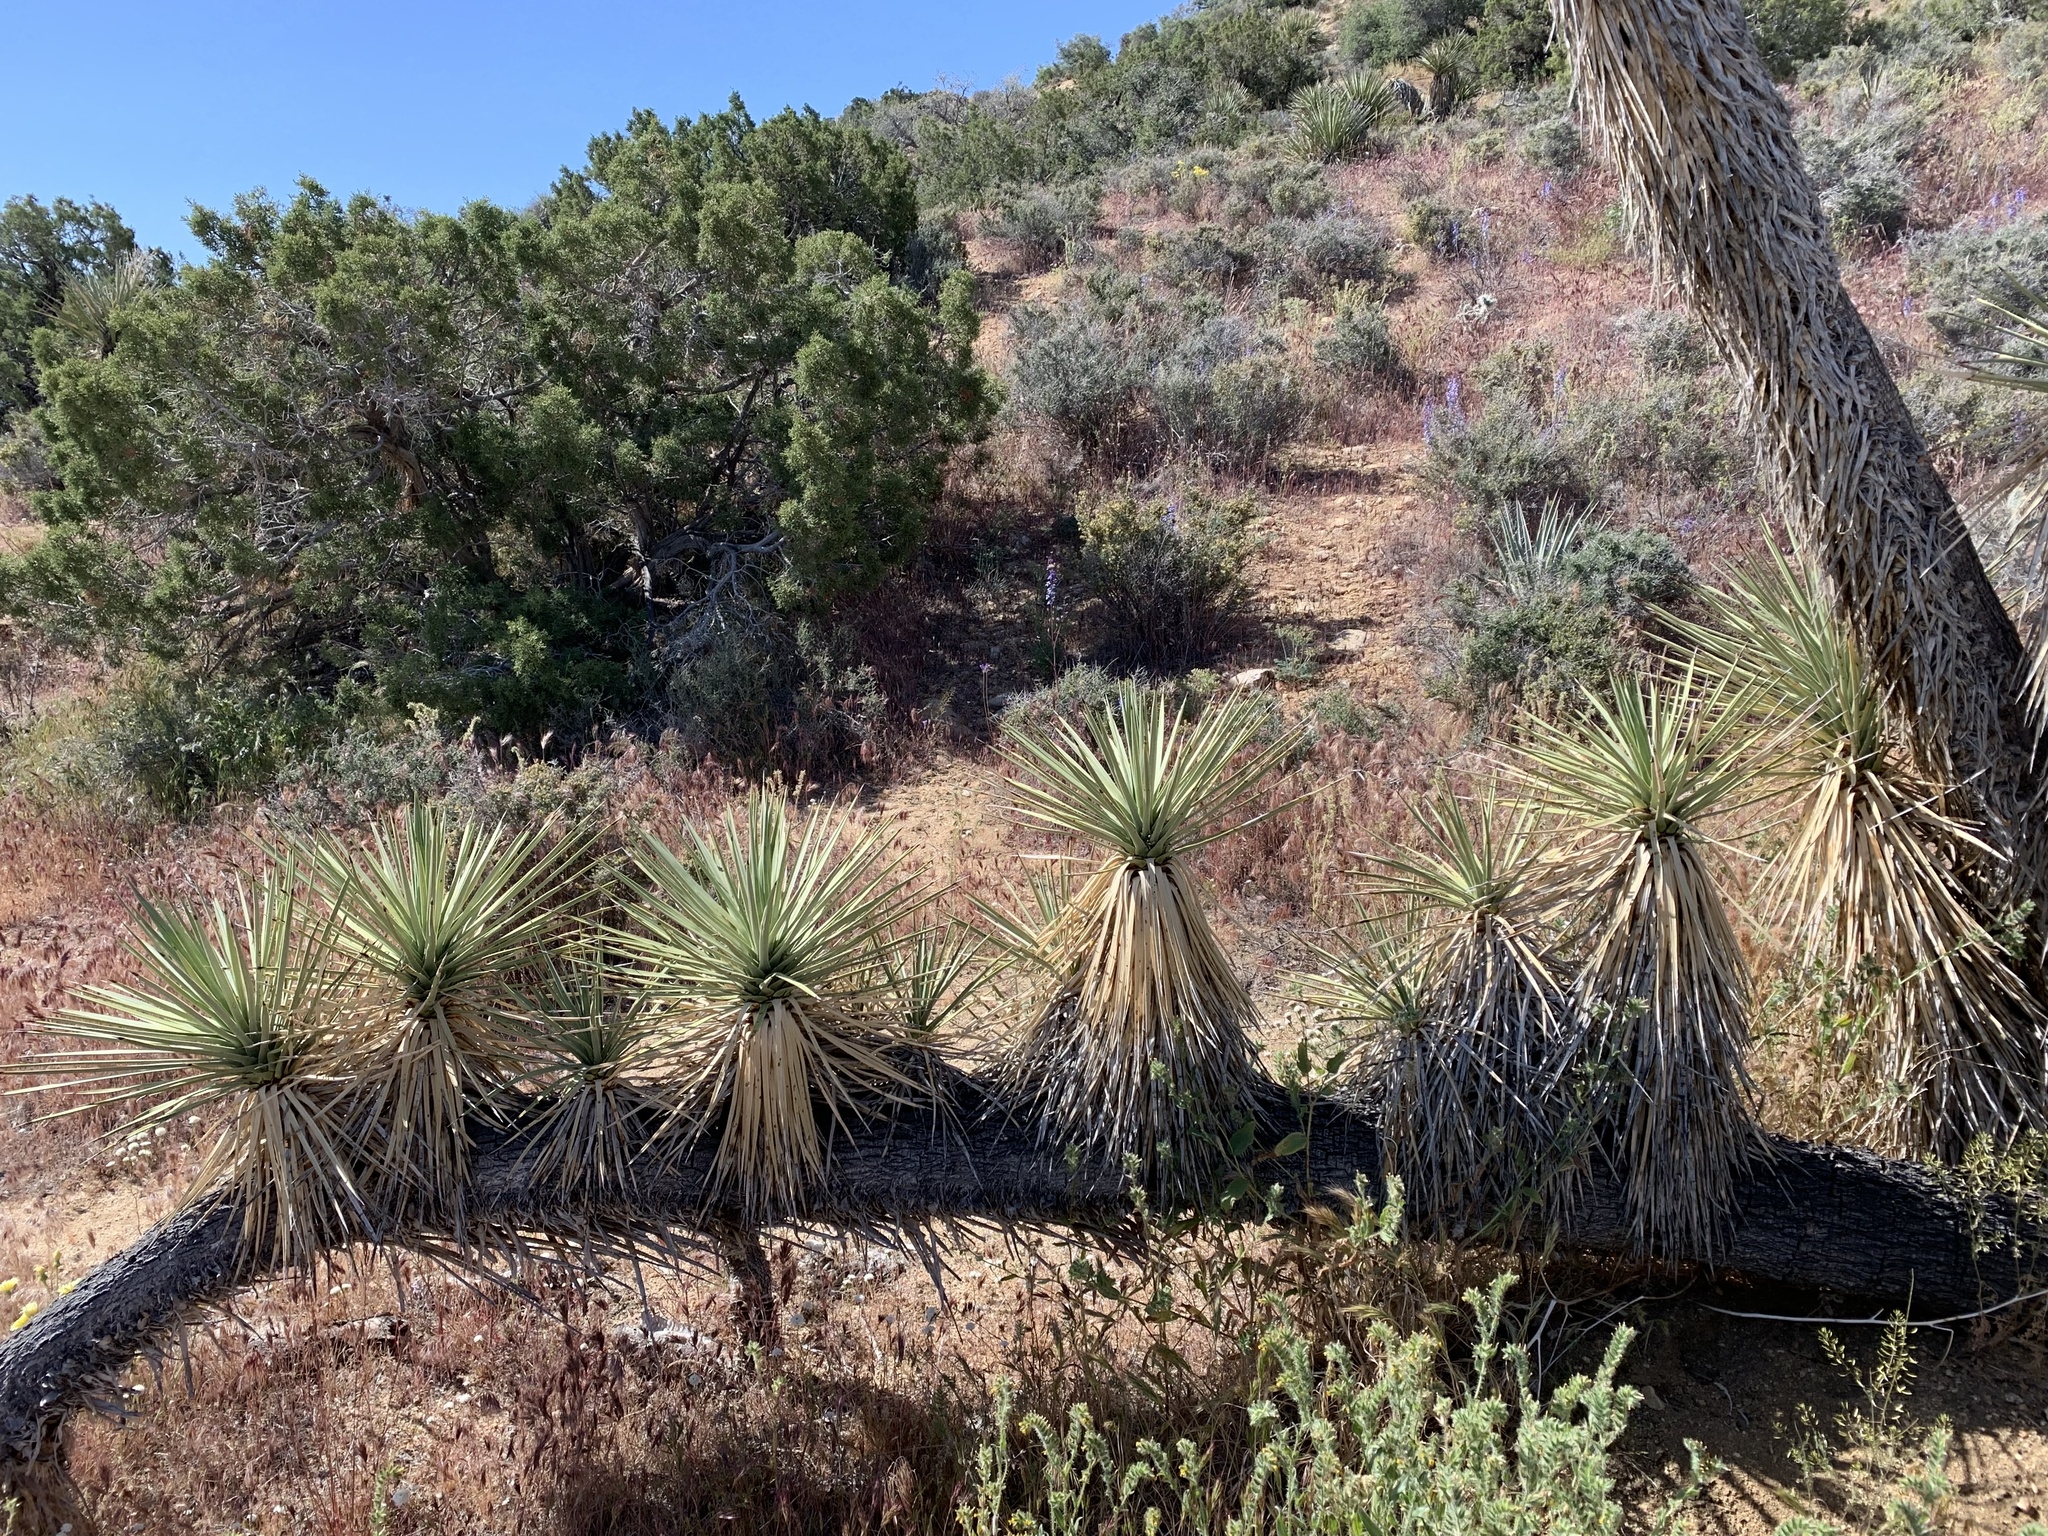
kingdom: Plantae
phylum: Tracheophyta
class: Liliopsida
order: Asparagales
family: Asparagaceae
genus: Yucca
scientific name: Yucca brevifolia
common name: Joshua tree
